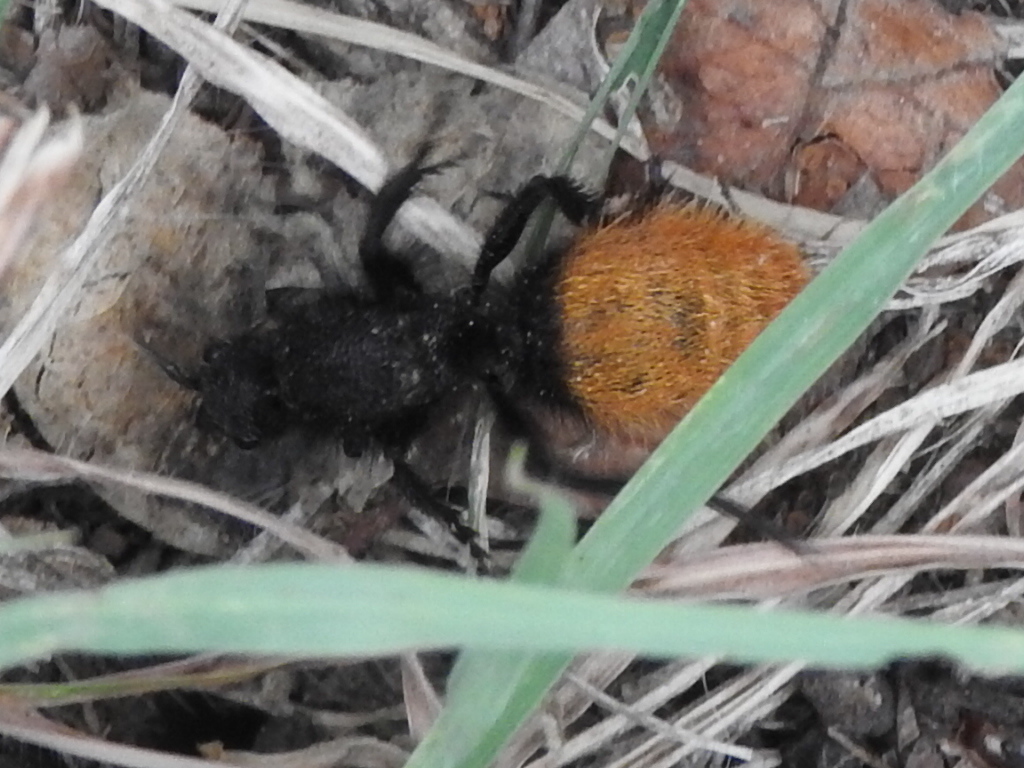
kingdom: Animalia
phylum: Arthropoda
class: Insecta
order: Hymenoptera
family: Mutillidae
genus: Dasymutilla
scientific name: Dasymutilla
